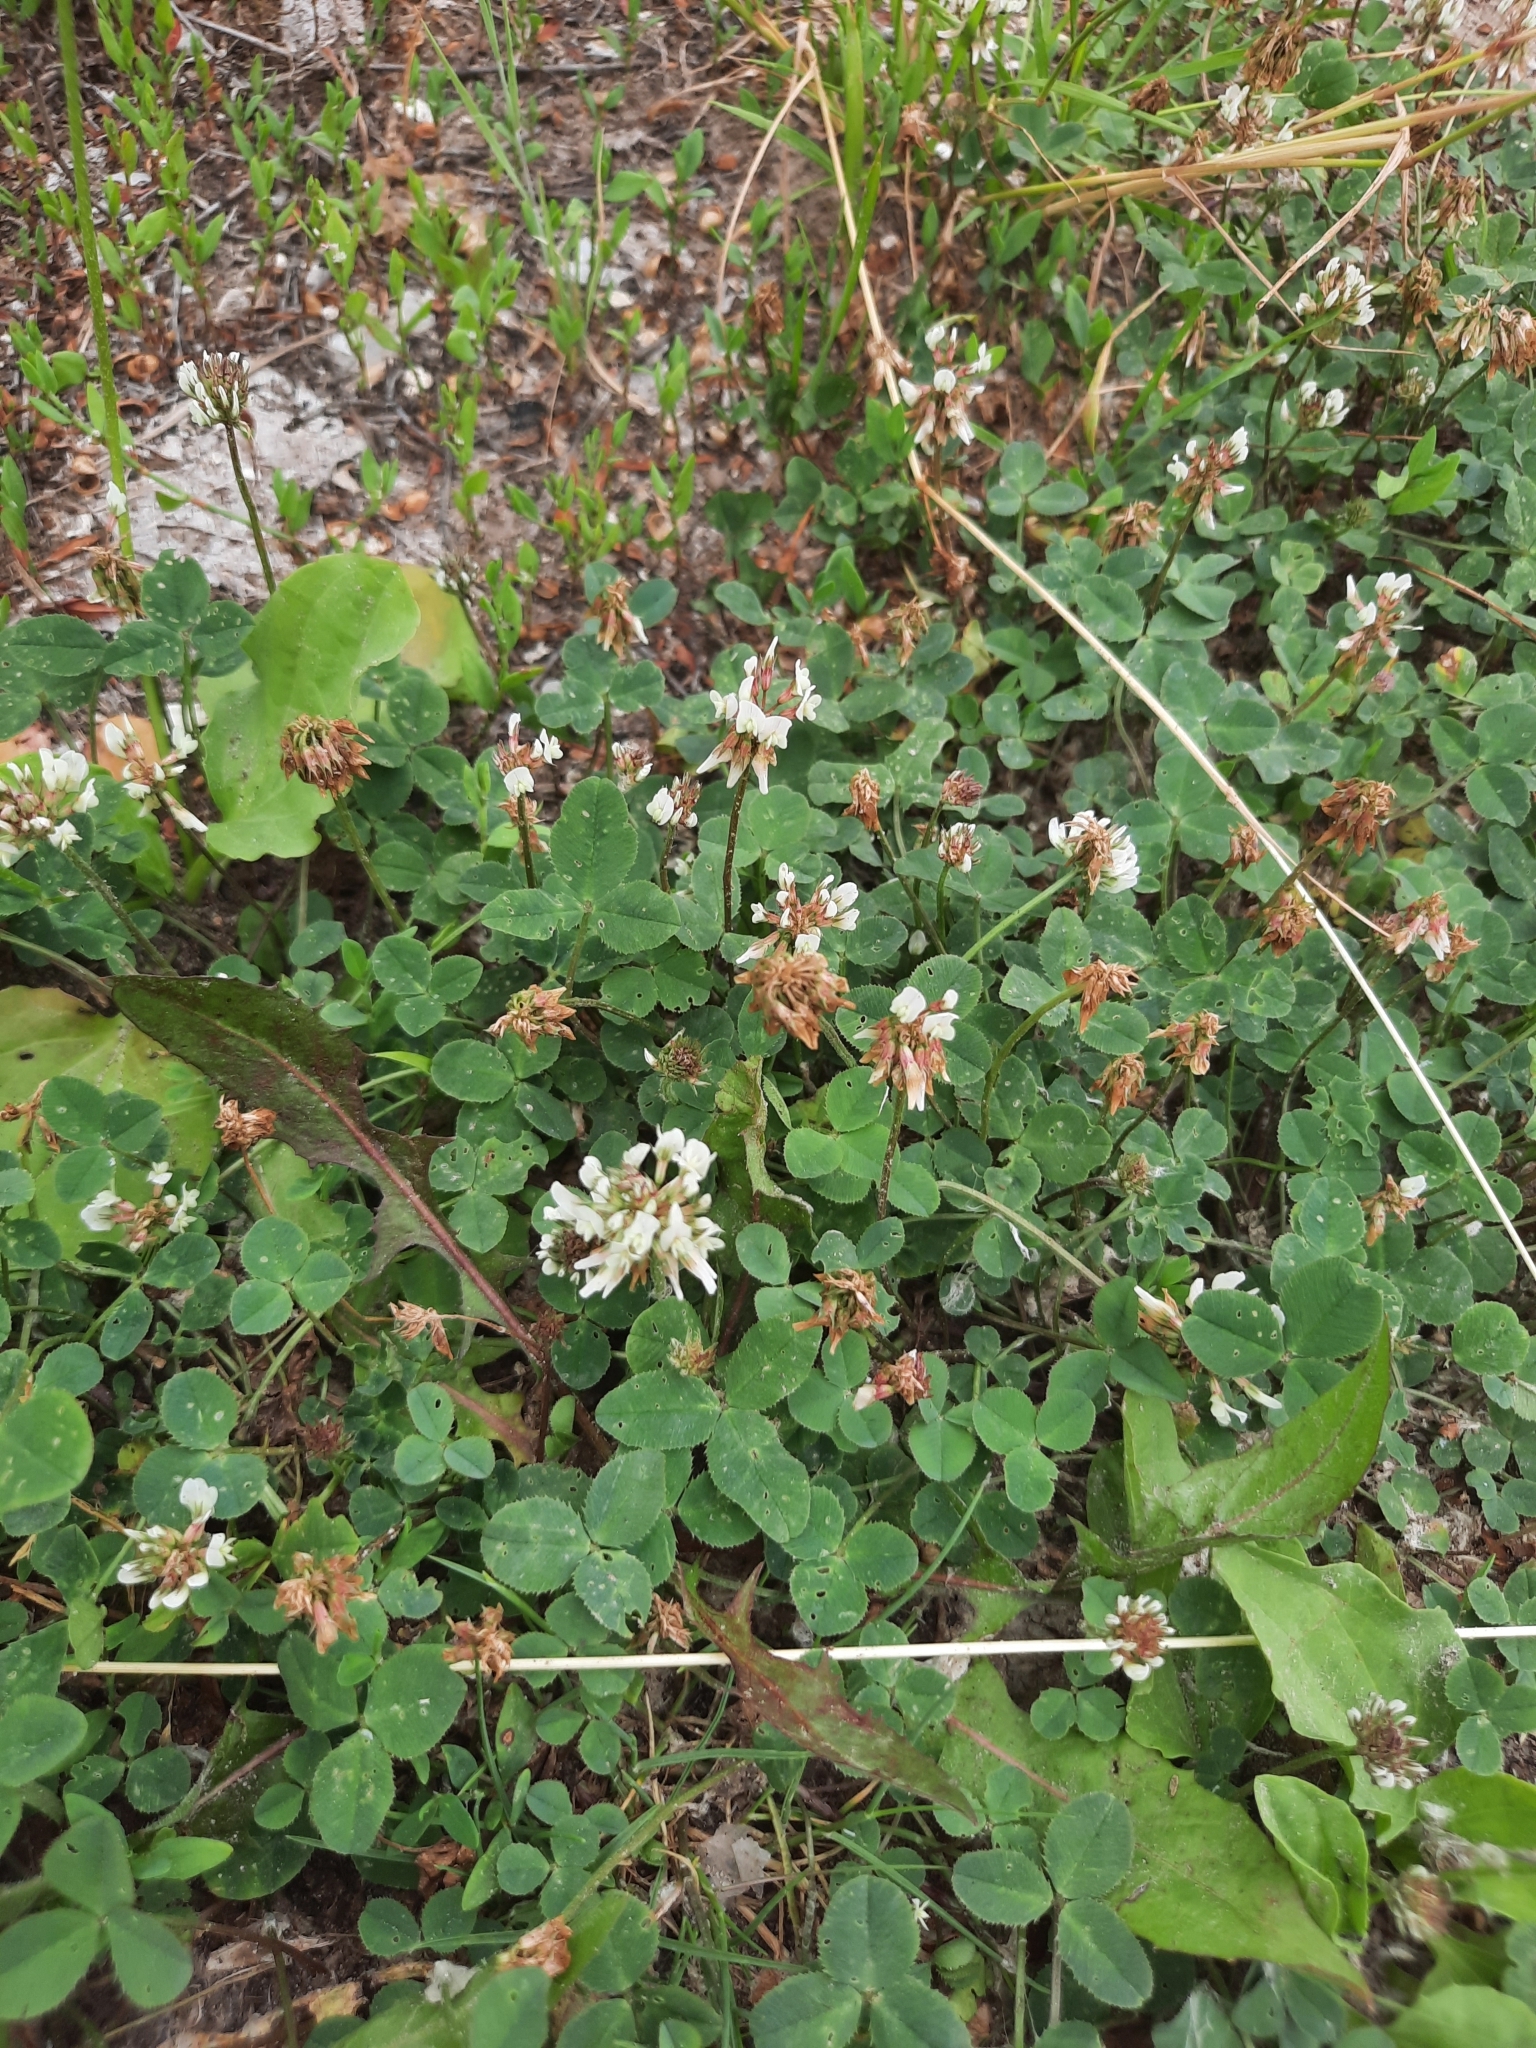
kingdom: Plantae
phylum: Tracheophyta
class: Magnoliopsida
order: Fabales
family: Fabaceae
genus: Trifolium
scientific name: Trifolium repens
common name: White clover
